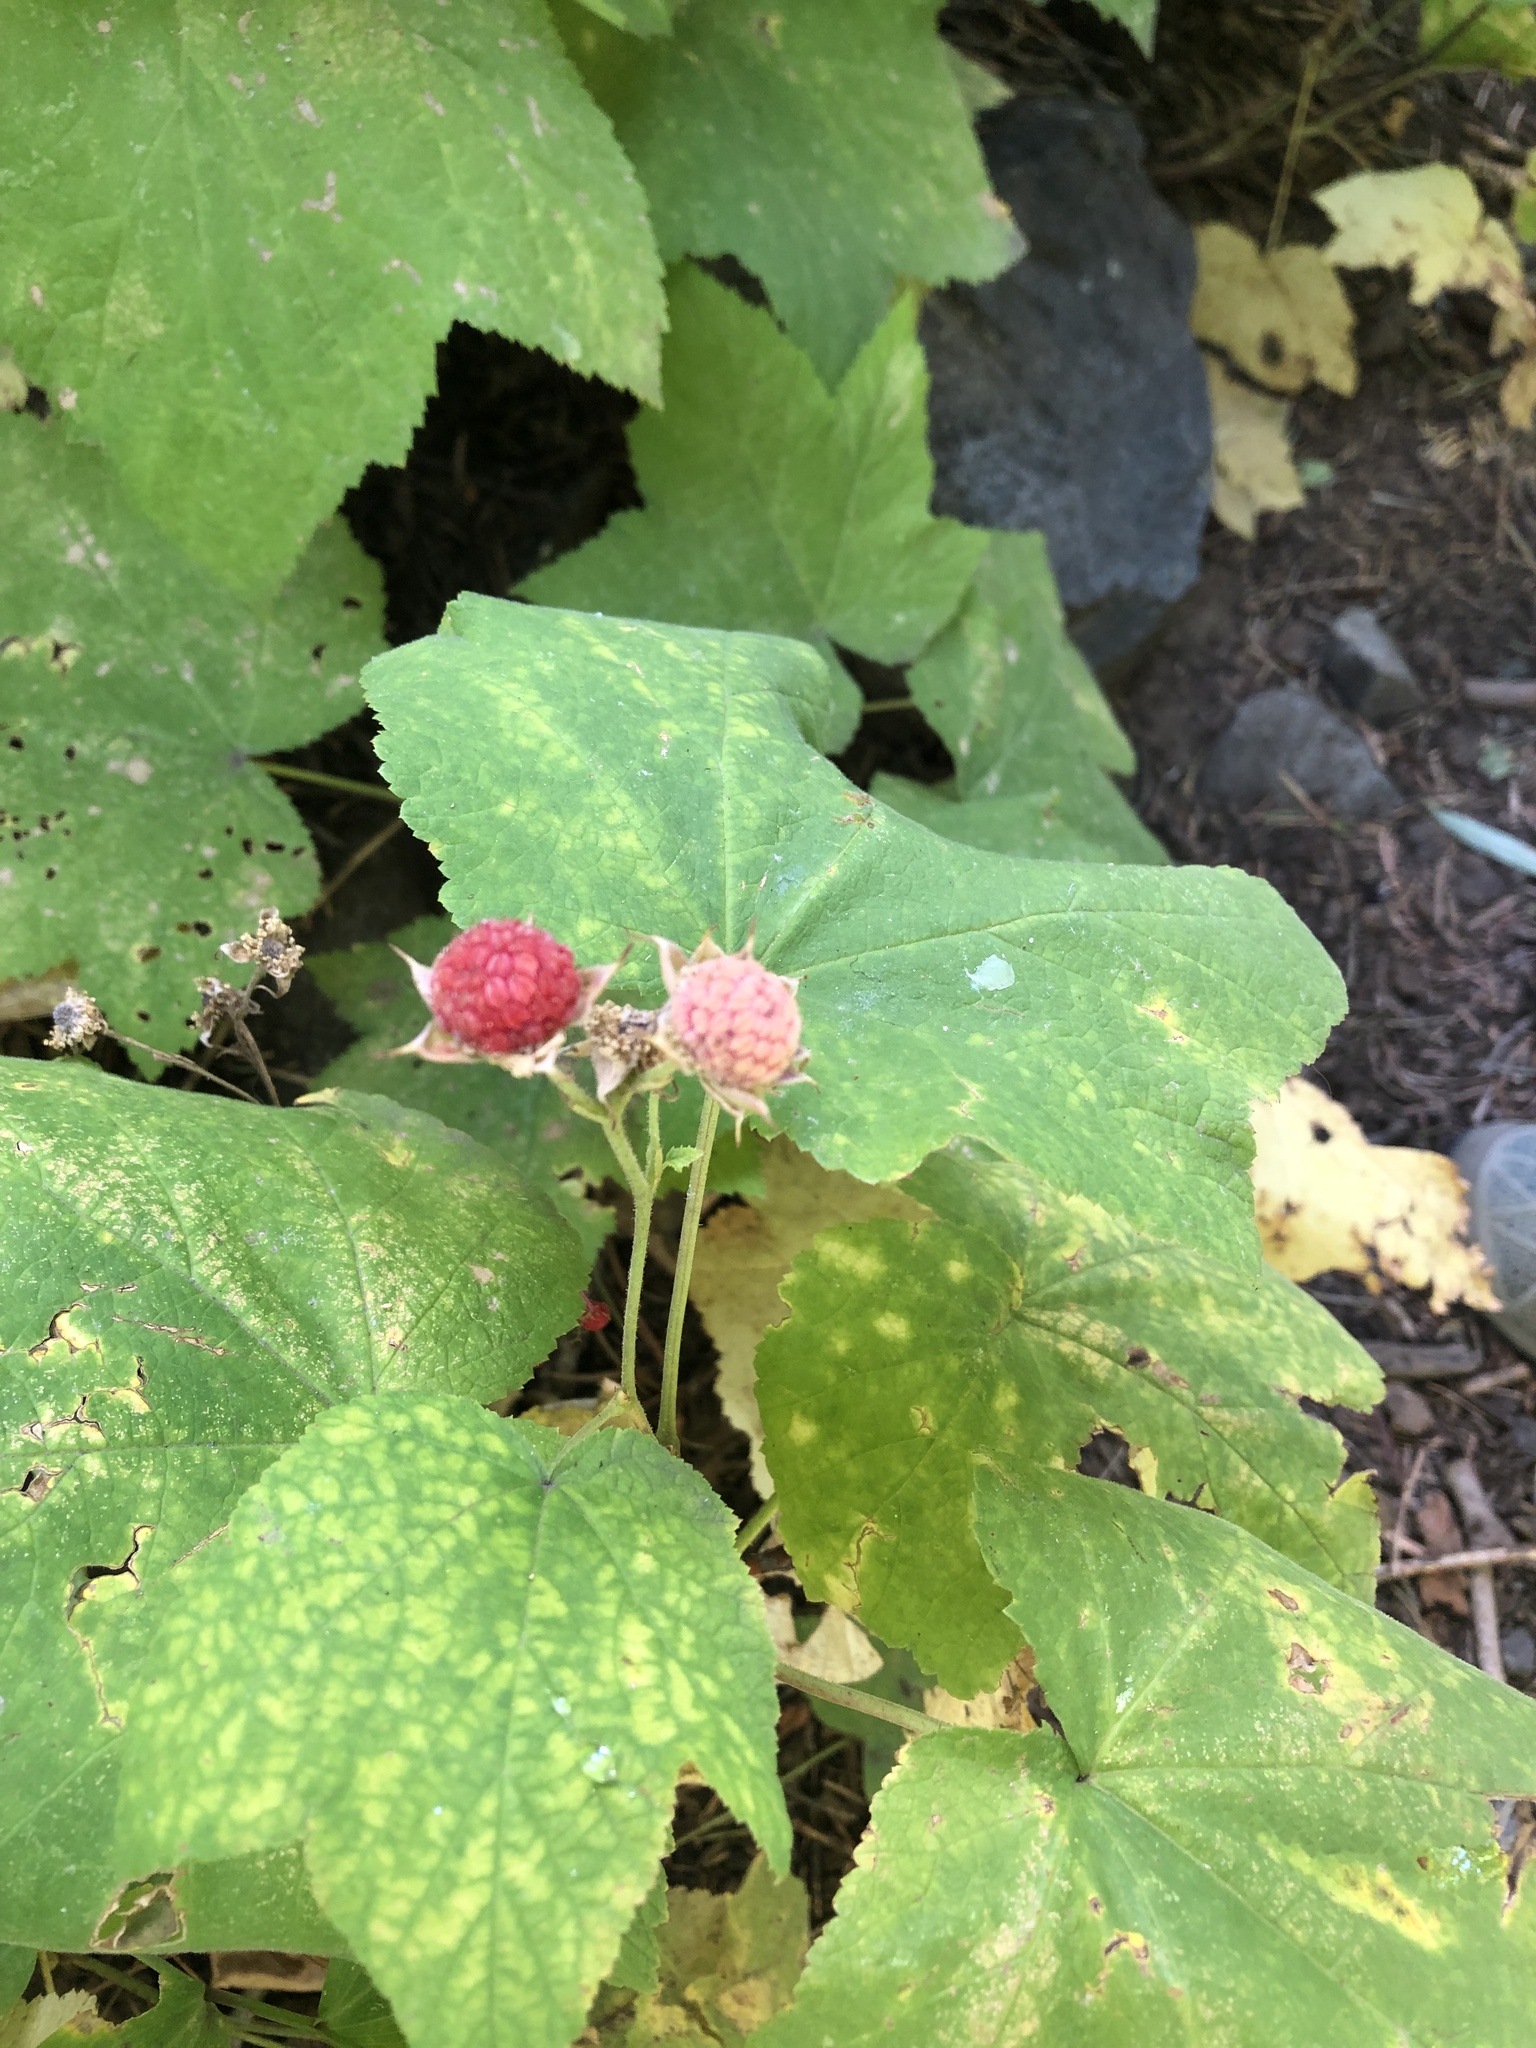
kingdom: Plantae
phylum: Tracheophyta
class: Magnoliopsida
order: Rosales
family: Rosaceae
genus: Rubus
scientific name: Rubus parviflorus
